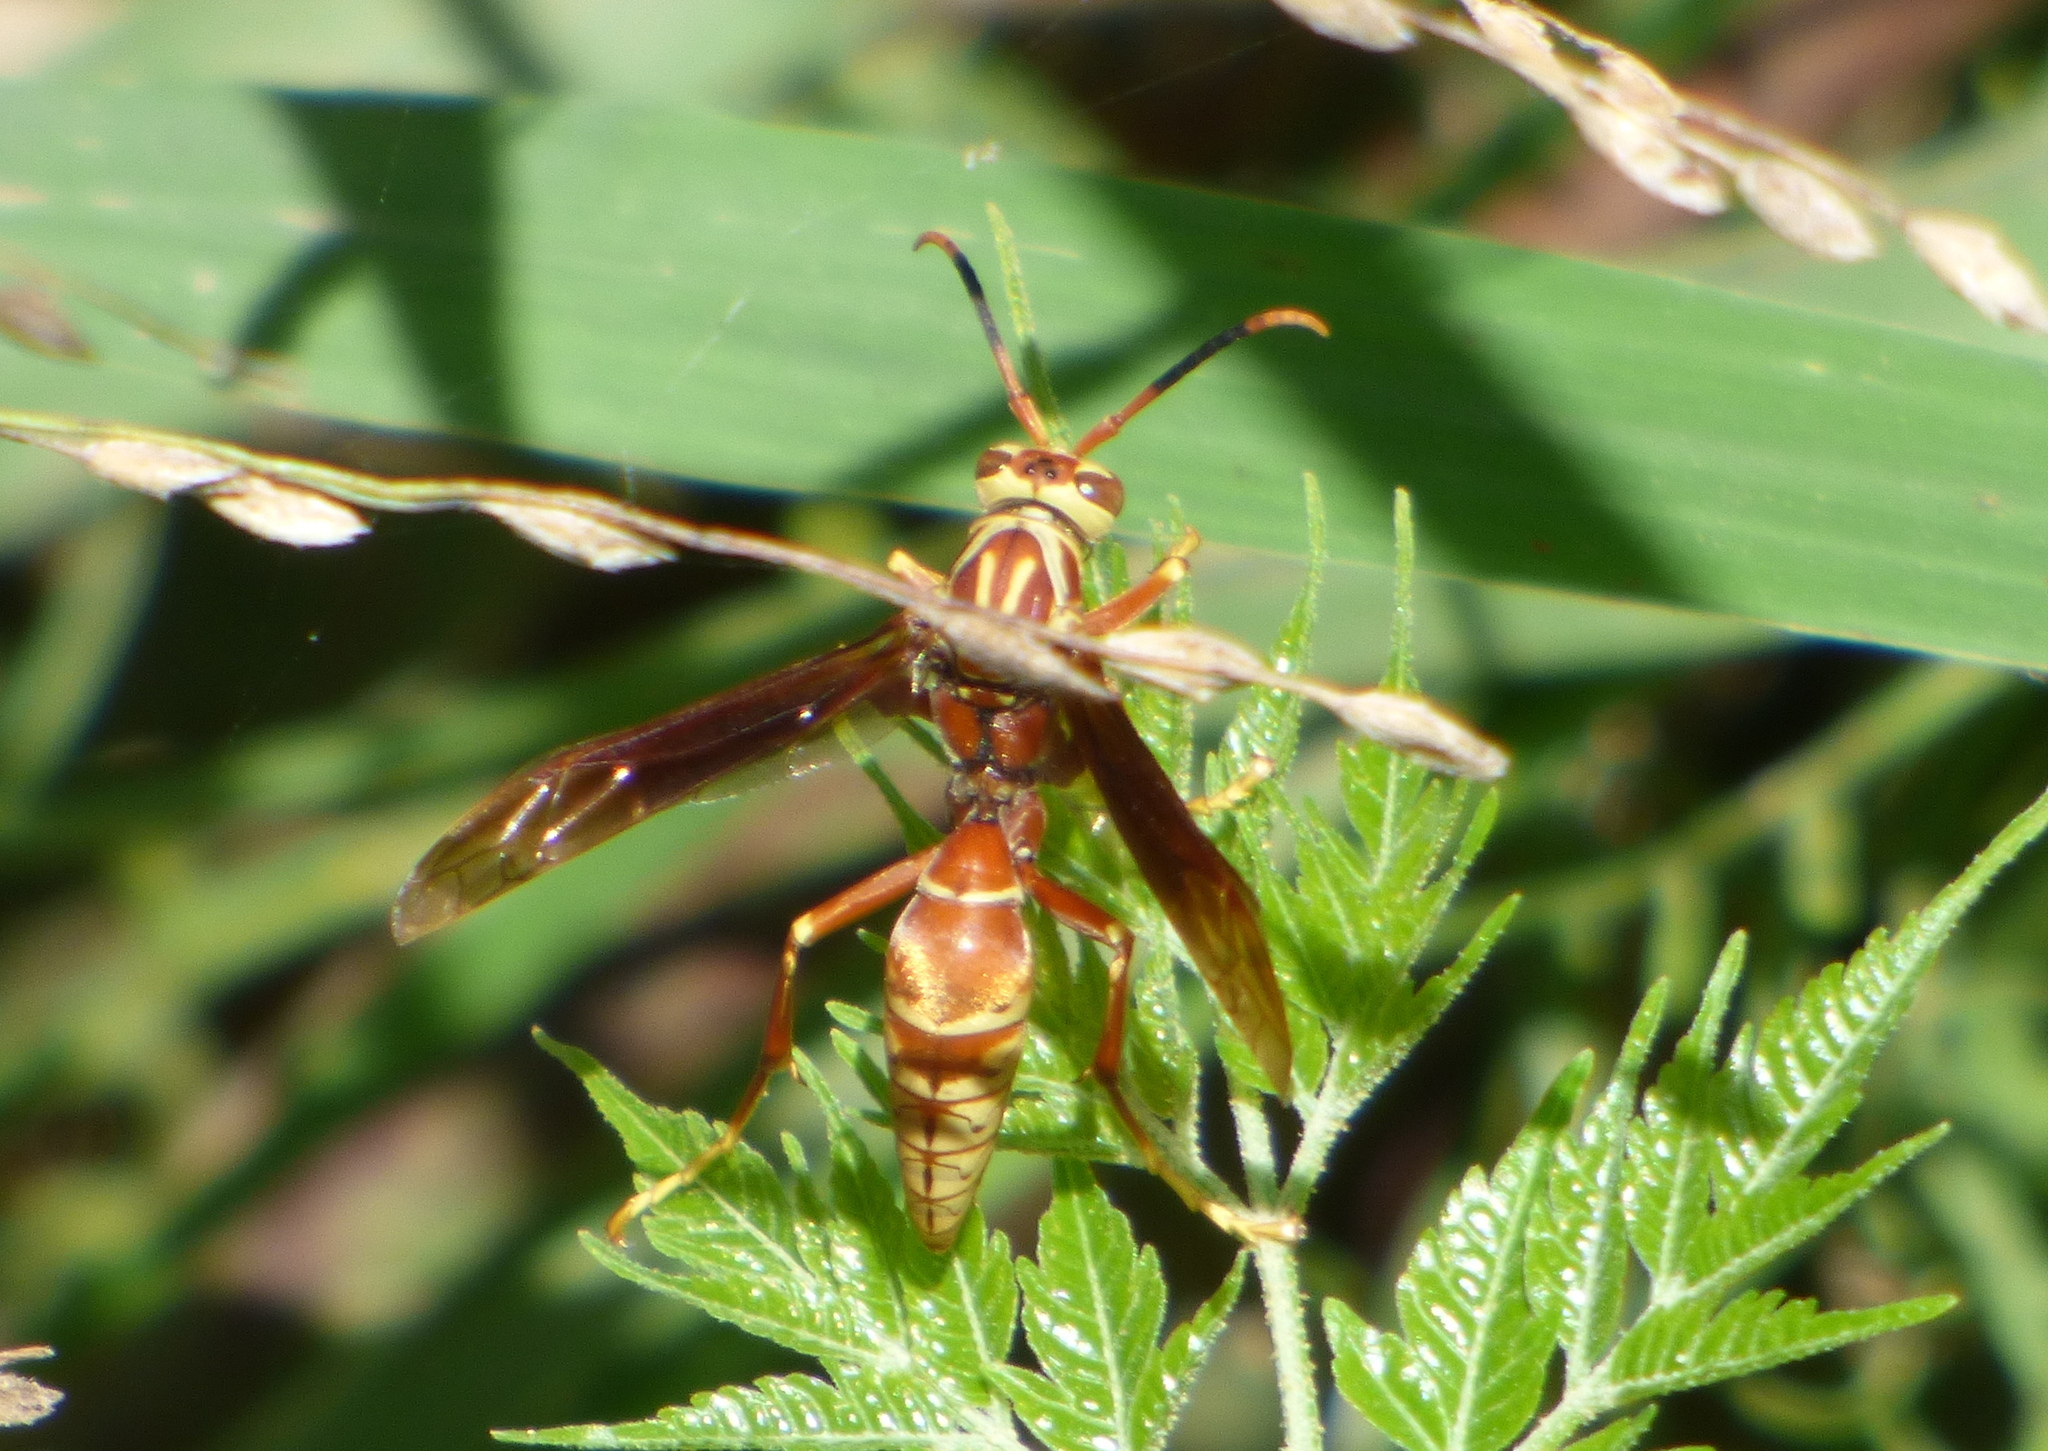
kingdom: Animalia
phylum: Arthropoda
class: Insecta
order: Hymenoptera
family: Eumenidae
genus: Polistes
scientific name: Polistes cavapyta
